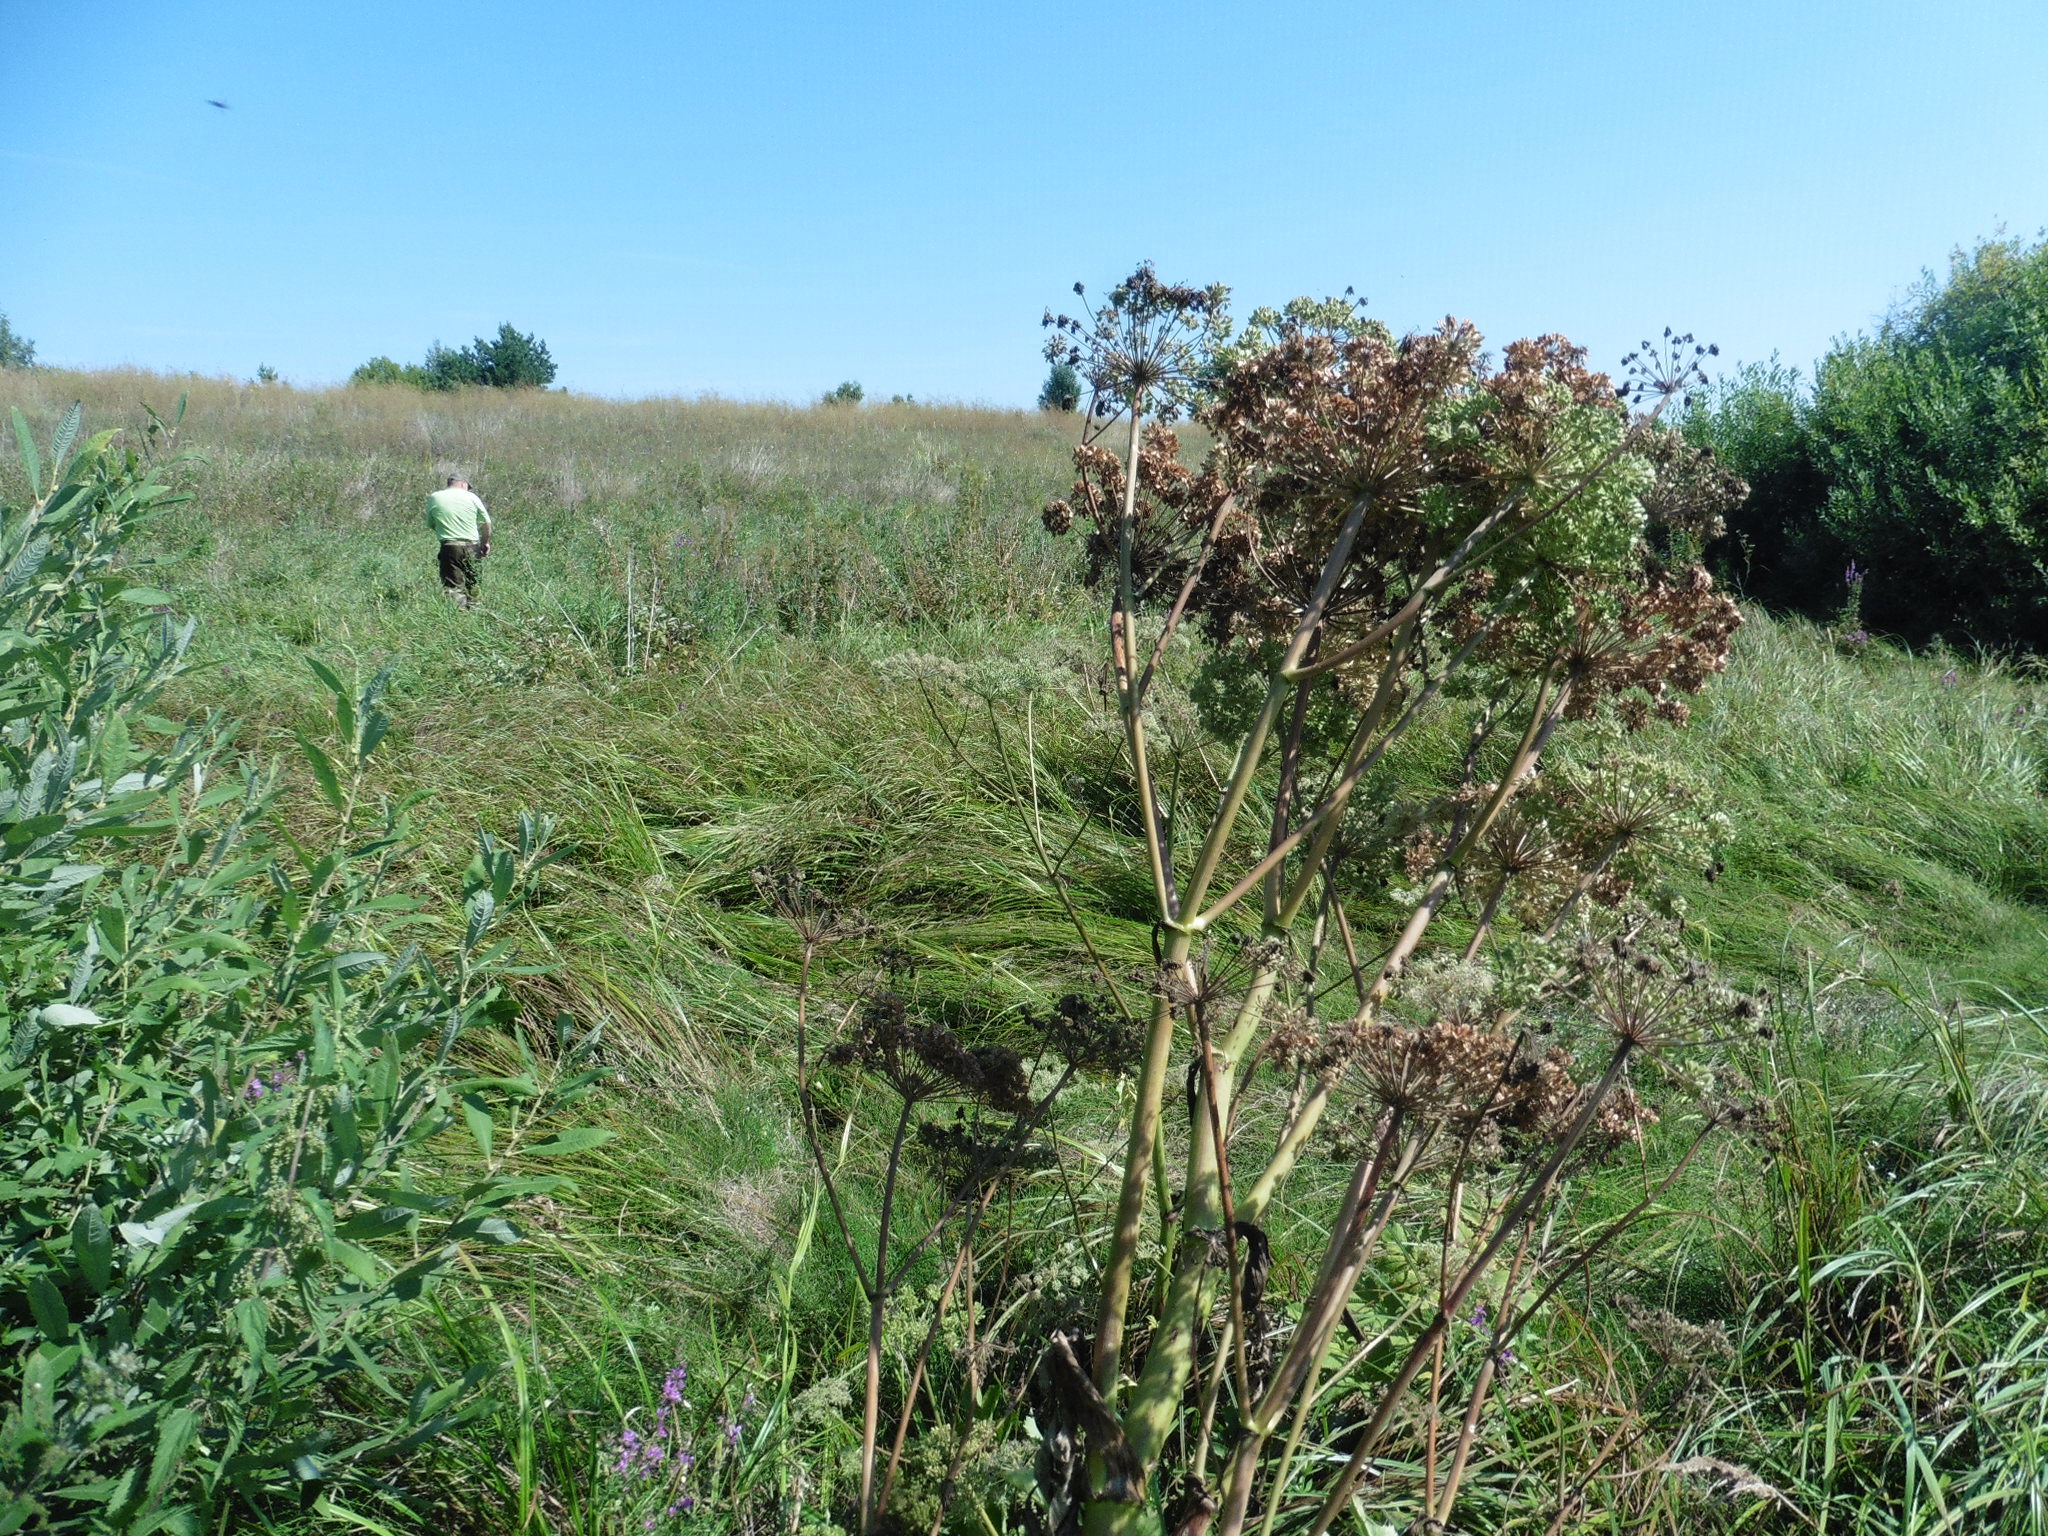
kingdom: Plantae
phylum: Tracheophyta
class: Magnoliopsida
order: Apiales
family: Apiaceae
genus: Angelica
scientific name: Angelica archangelica
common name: Garden angelica
